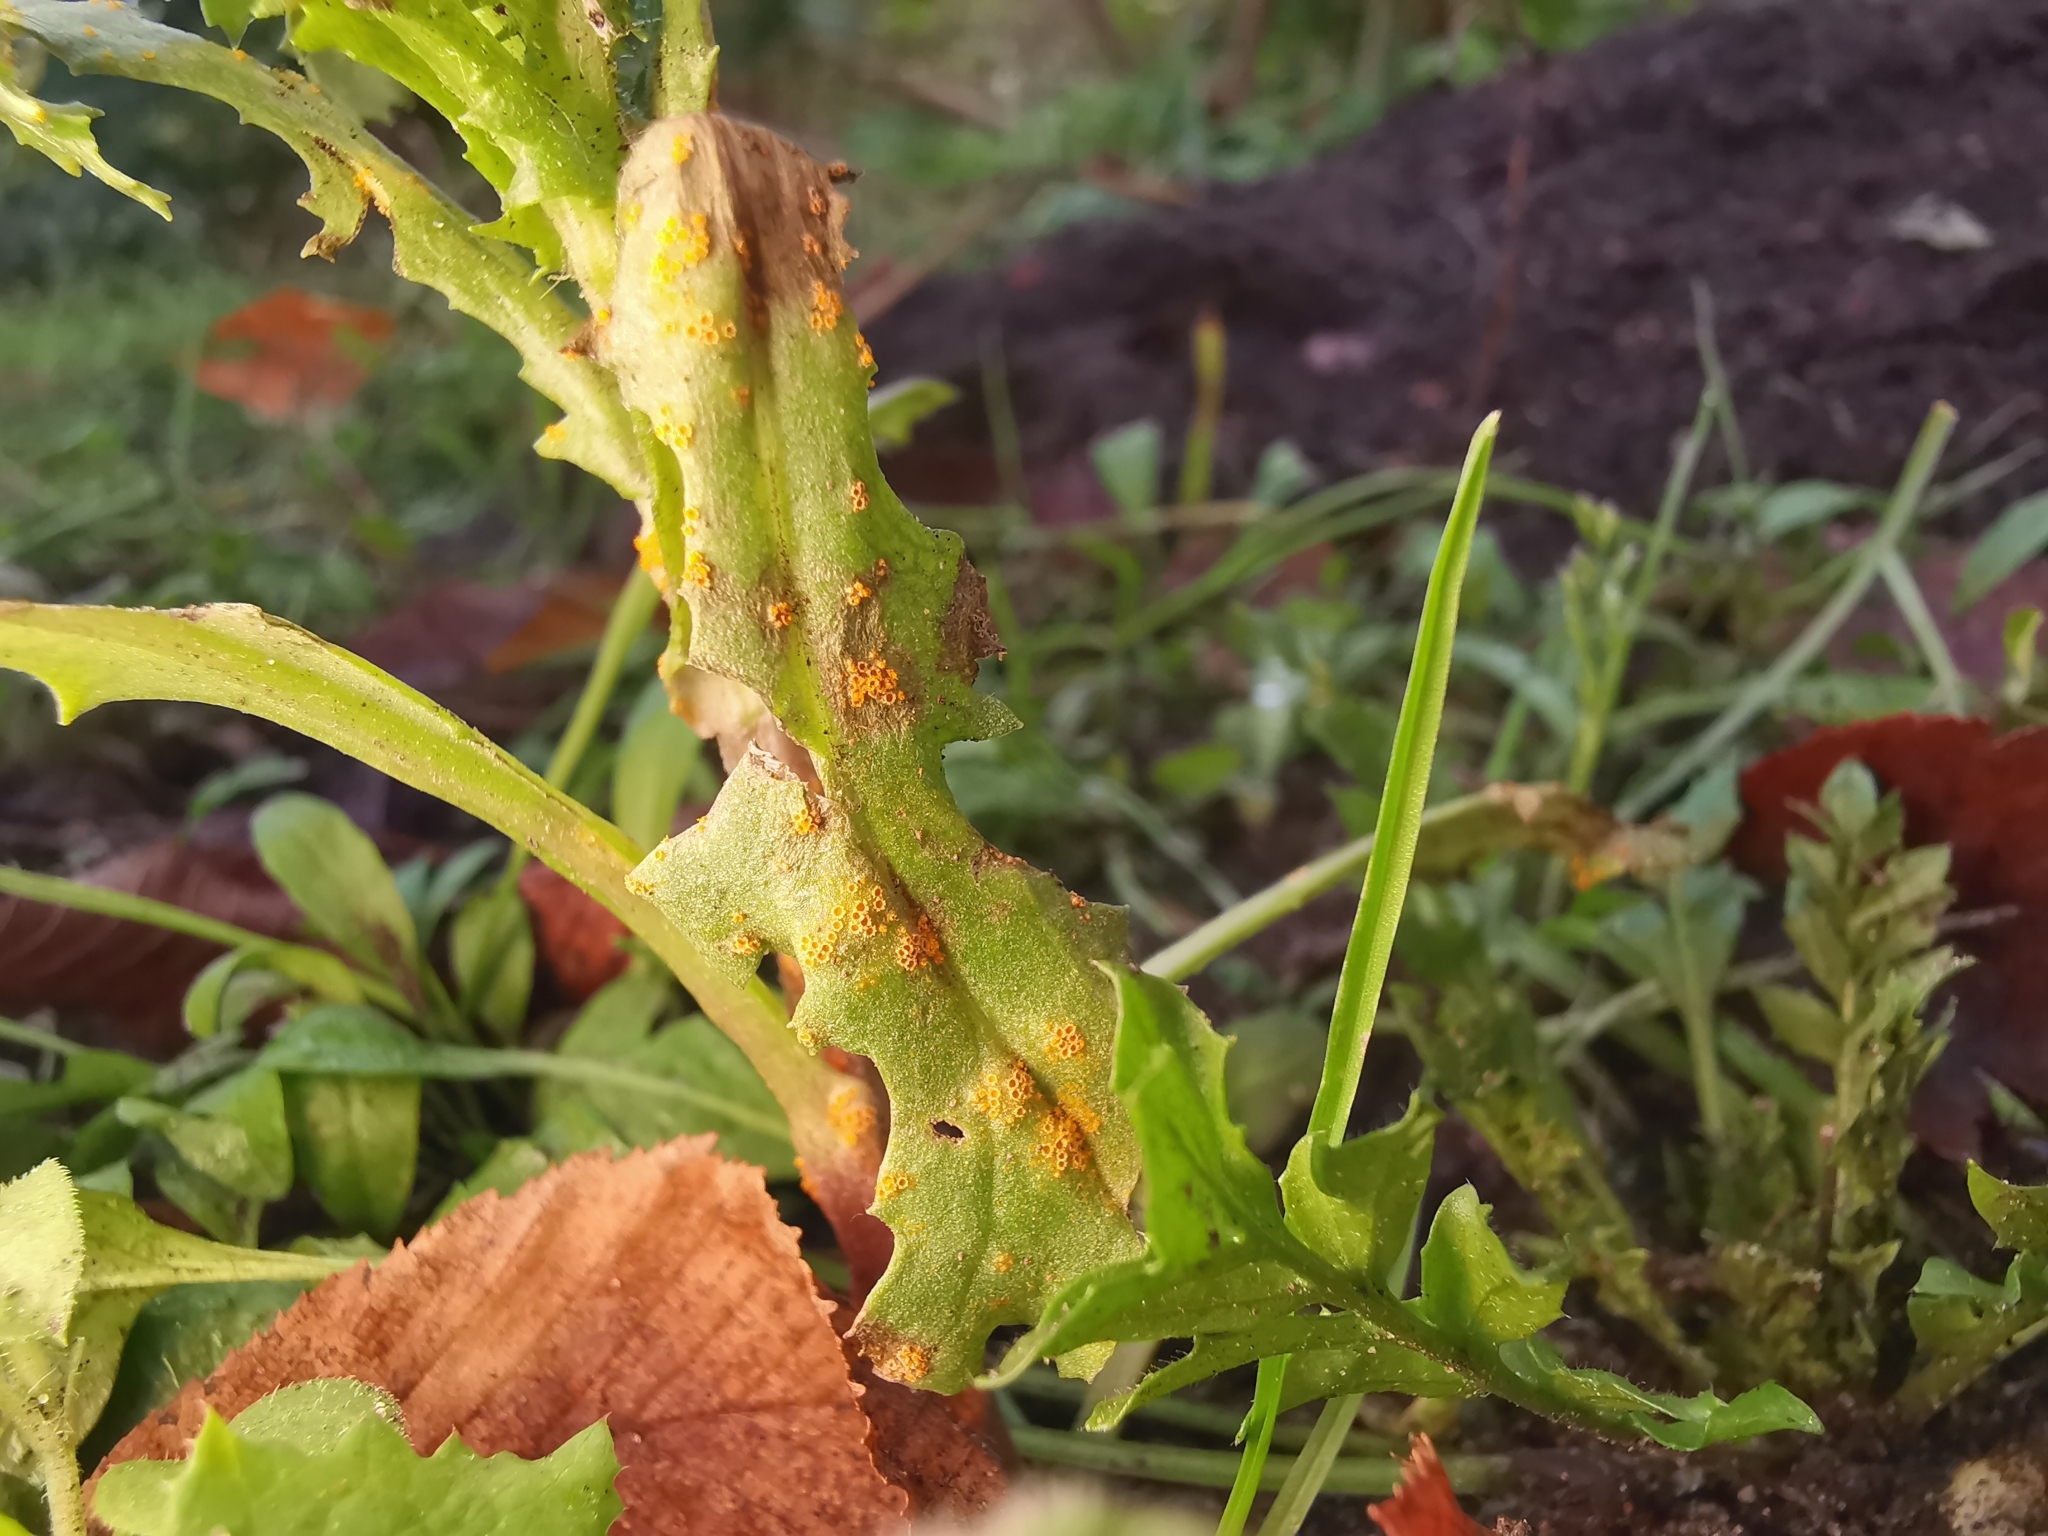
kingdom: Fungi
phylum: Basidiomycota
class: Pucciniomycetes
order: Pucciniales
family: Pucciniaceae
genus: Puccinia
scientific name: Puccinia lagenophorae
